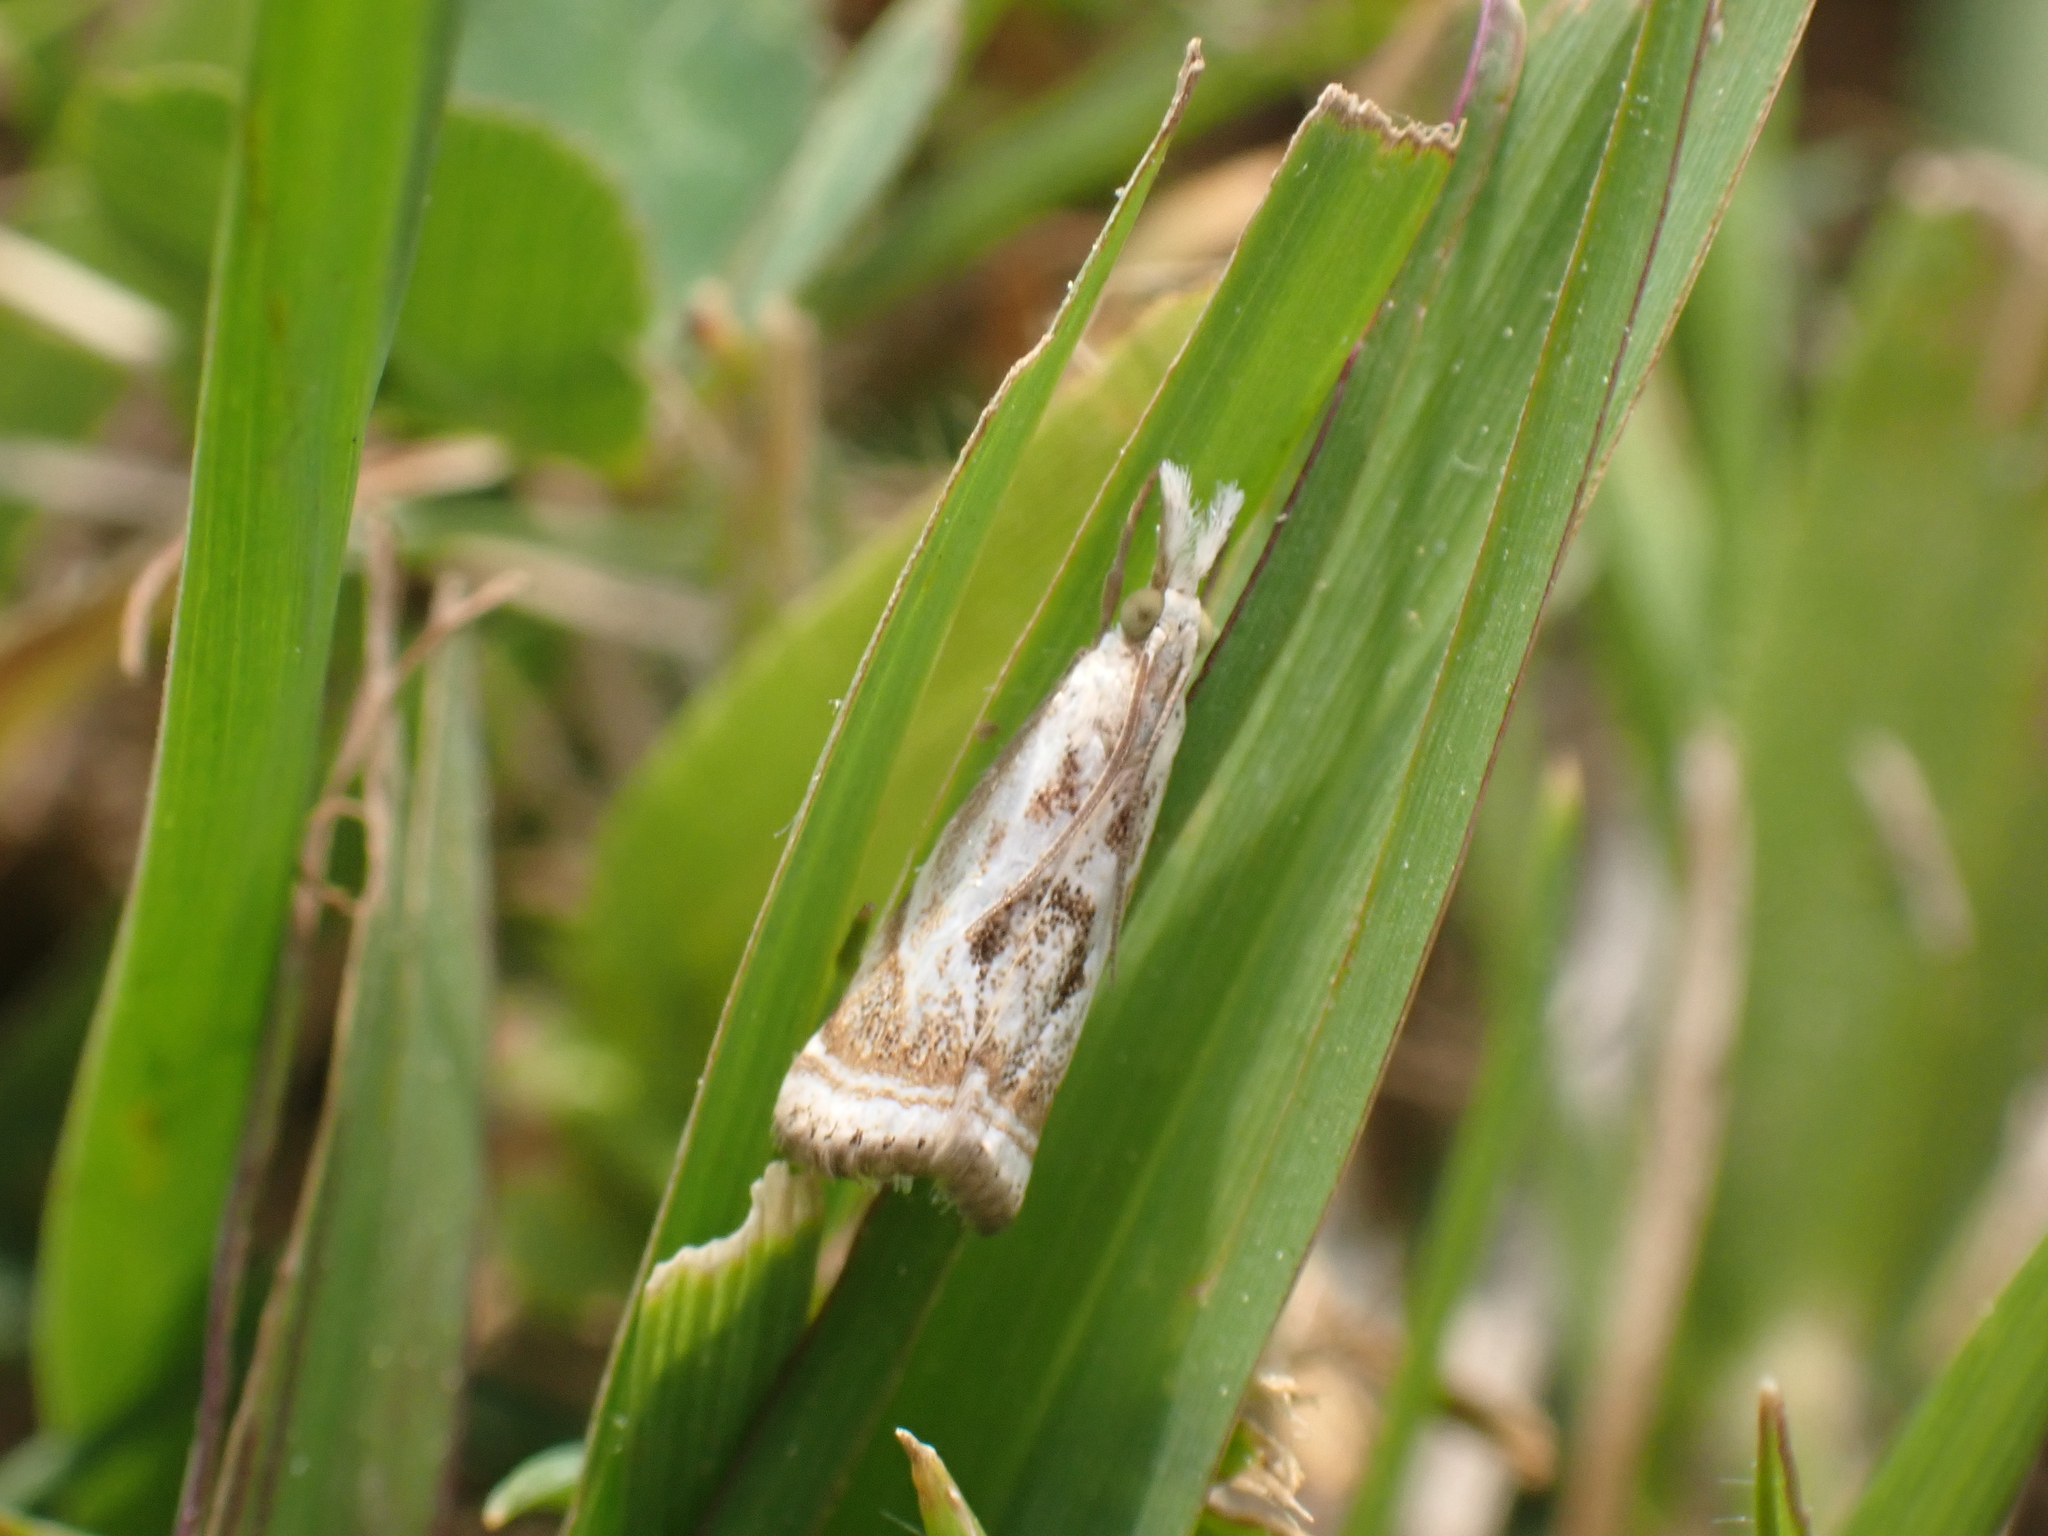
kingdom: Animalia
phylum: Arthropoda
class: Insecta
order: Lepidoptera
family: Crambidae
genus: Microcrambus
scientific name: Microcrambus elegans
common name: Elegant grass-veneer
